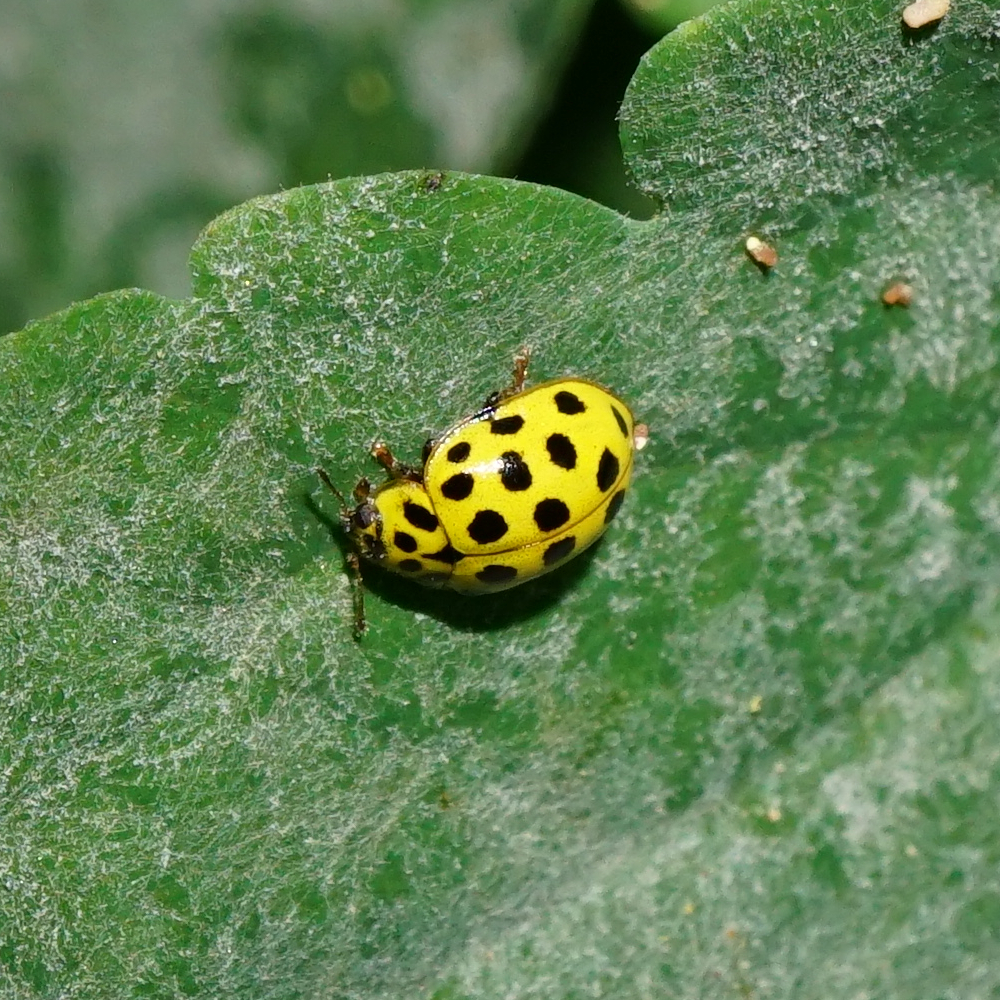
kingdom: Animalia
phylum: Arthropoda
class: Insecta
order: Coleoptera
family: Coccinellidae
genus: Psyllobora
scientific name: Psyllobora vigintiduopunctata
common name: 22-spot ladybird
